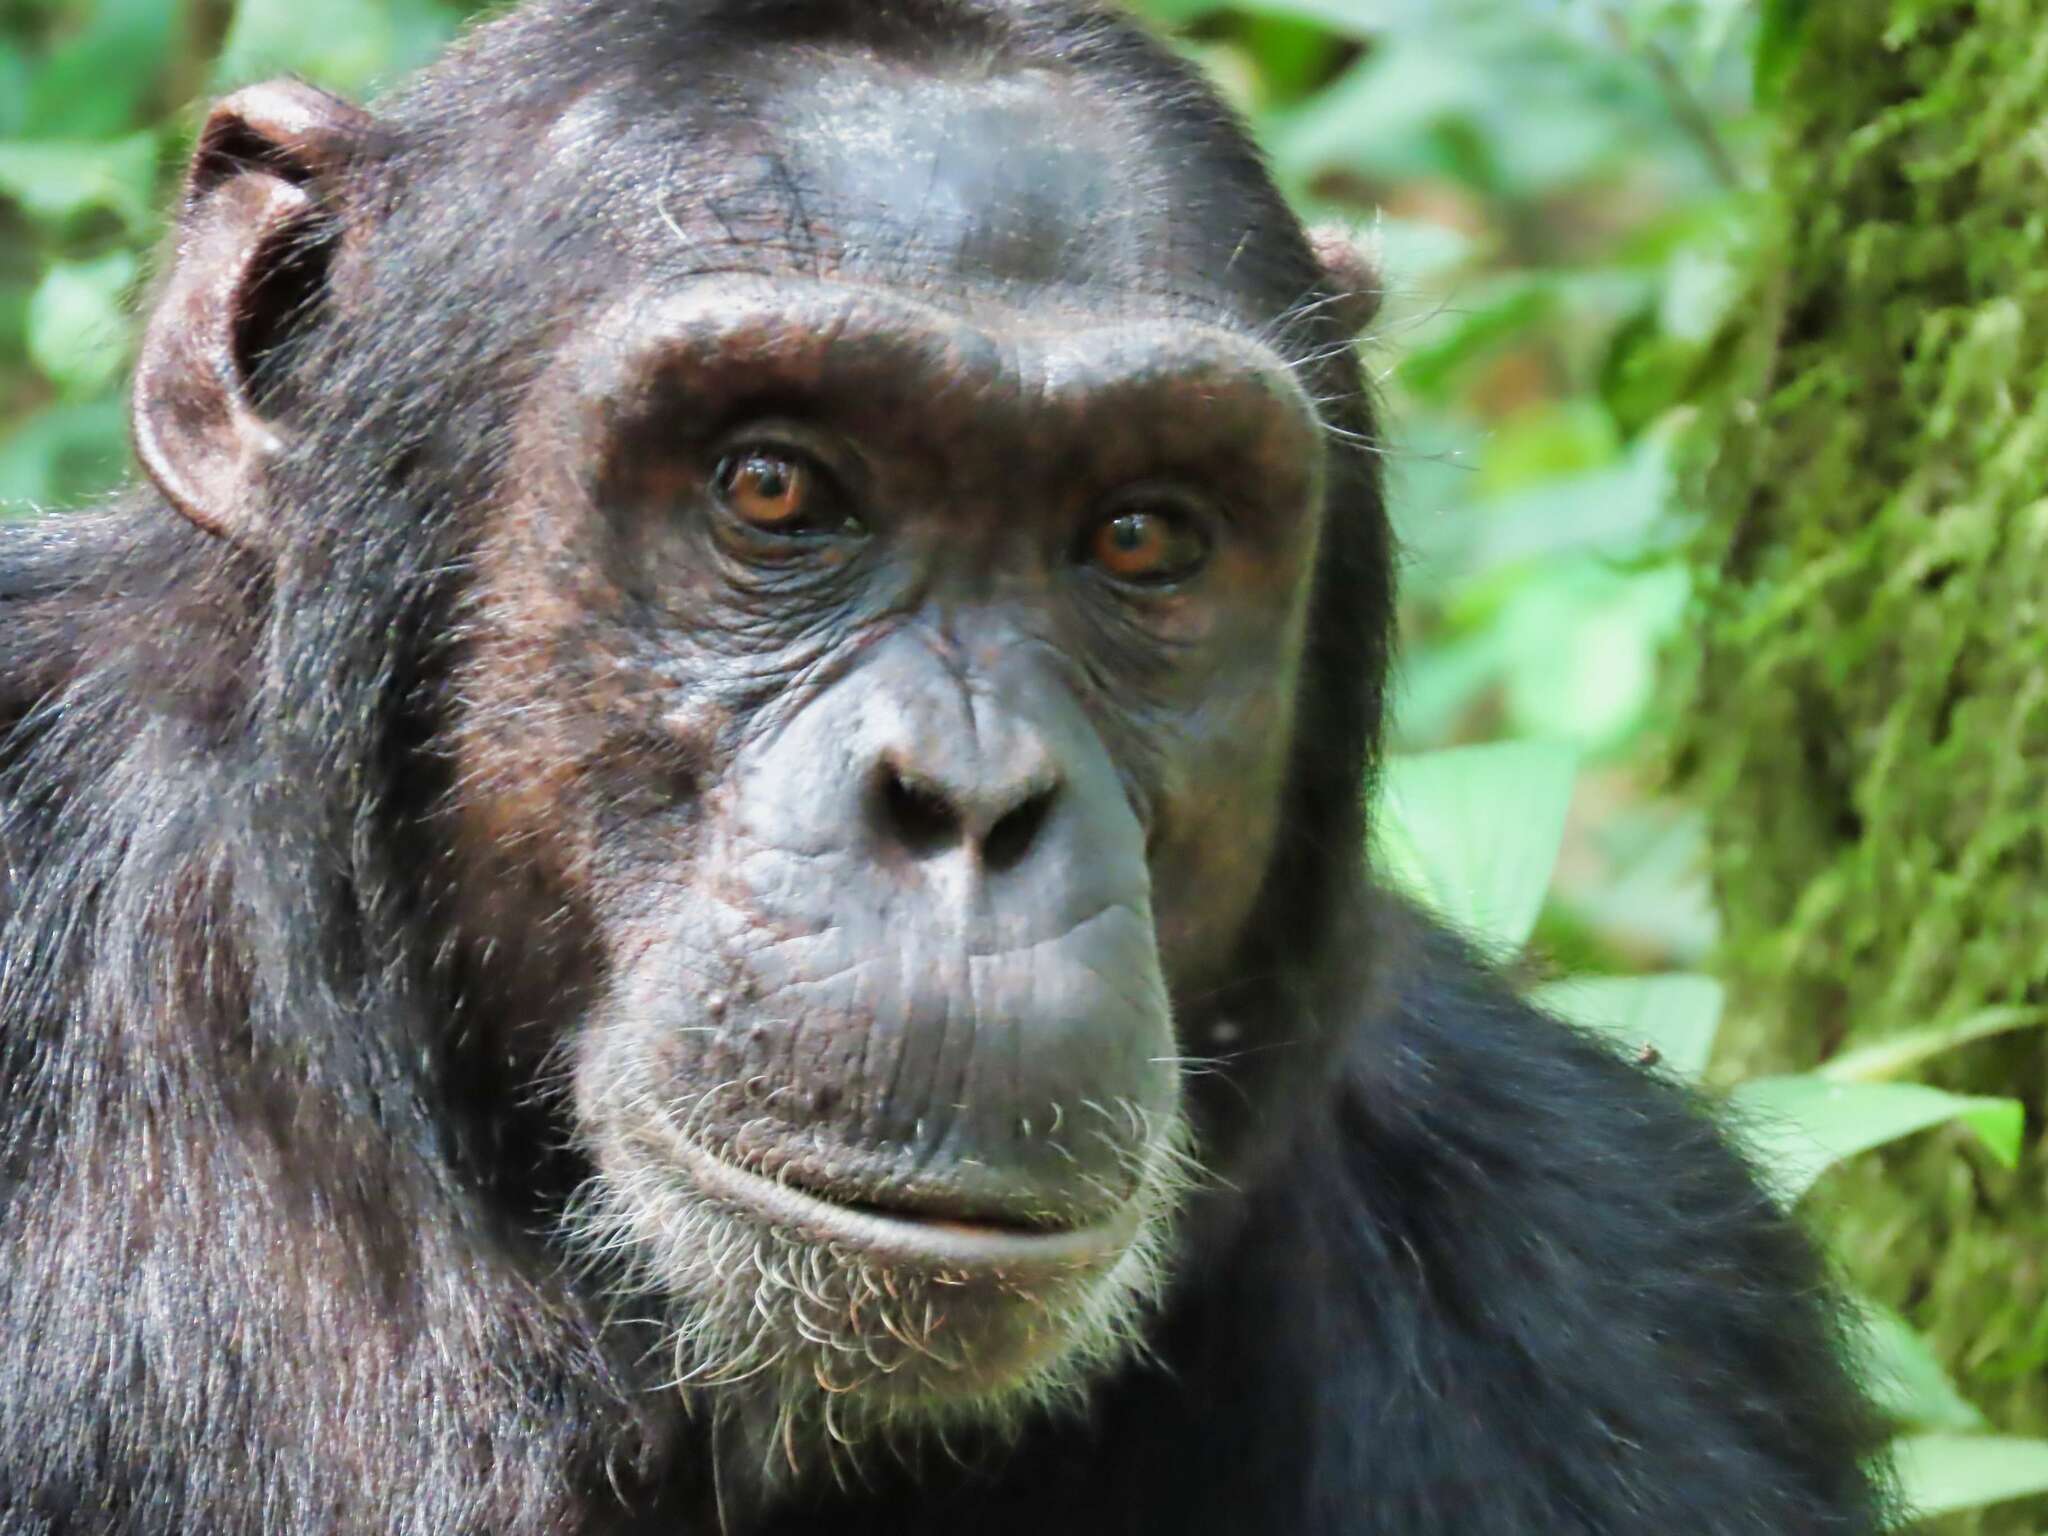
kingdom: Animalia
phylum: Chordata
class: Mammalia
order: Primates
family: Hominidae
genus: Pan
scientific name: Pan troglodytes
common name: Chimpanzee
